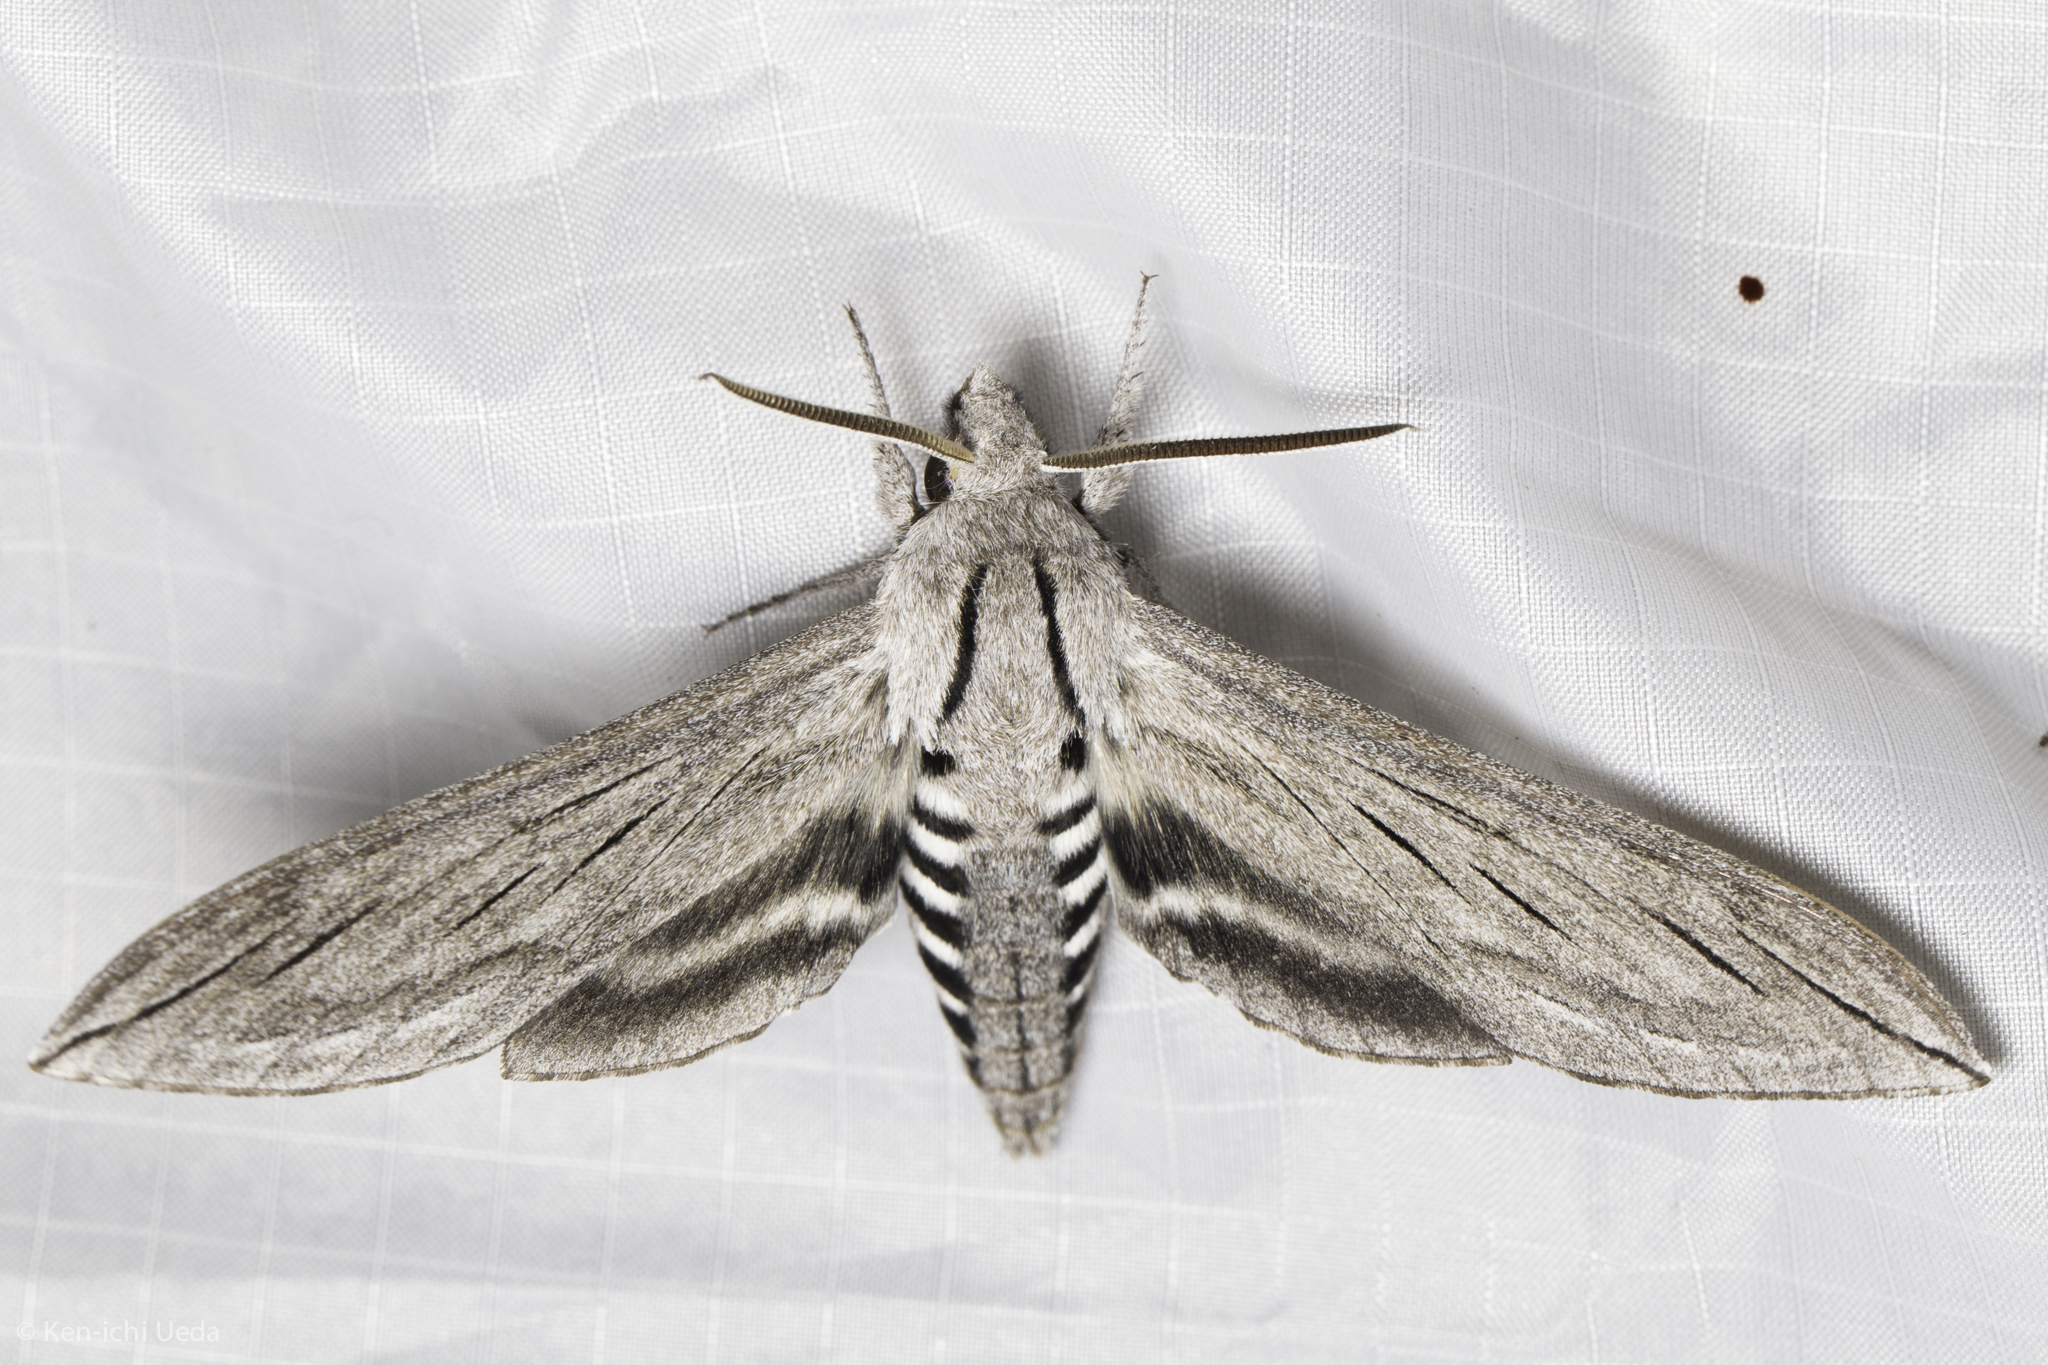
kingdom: Animalia
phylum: Arthropoda
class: Insecta
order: Lepidoptera
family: Sphingidae
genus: Sphinx
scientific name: Sphinx chersis
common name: Great ash sphinx
